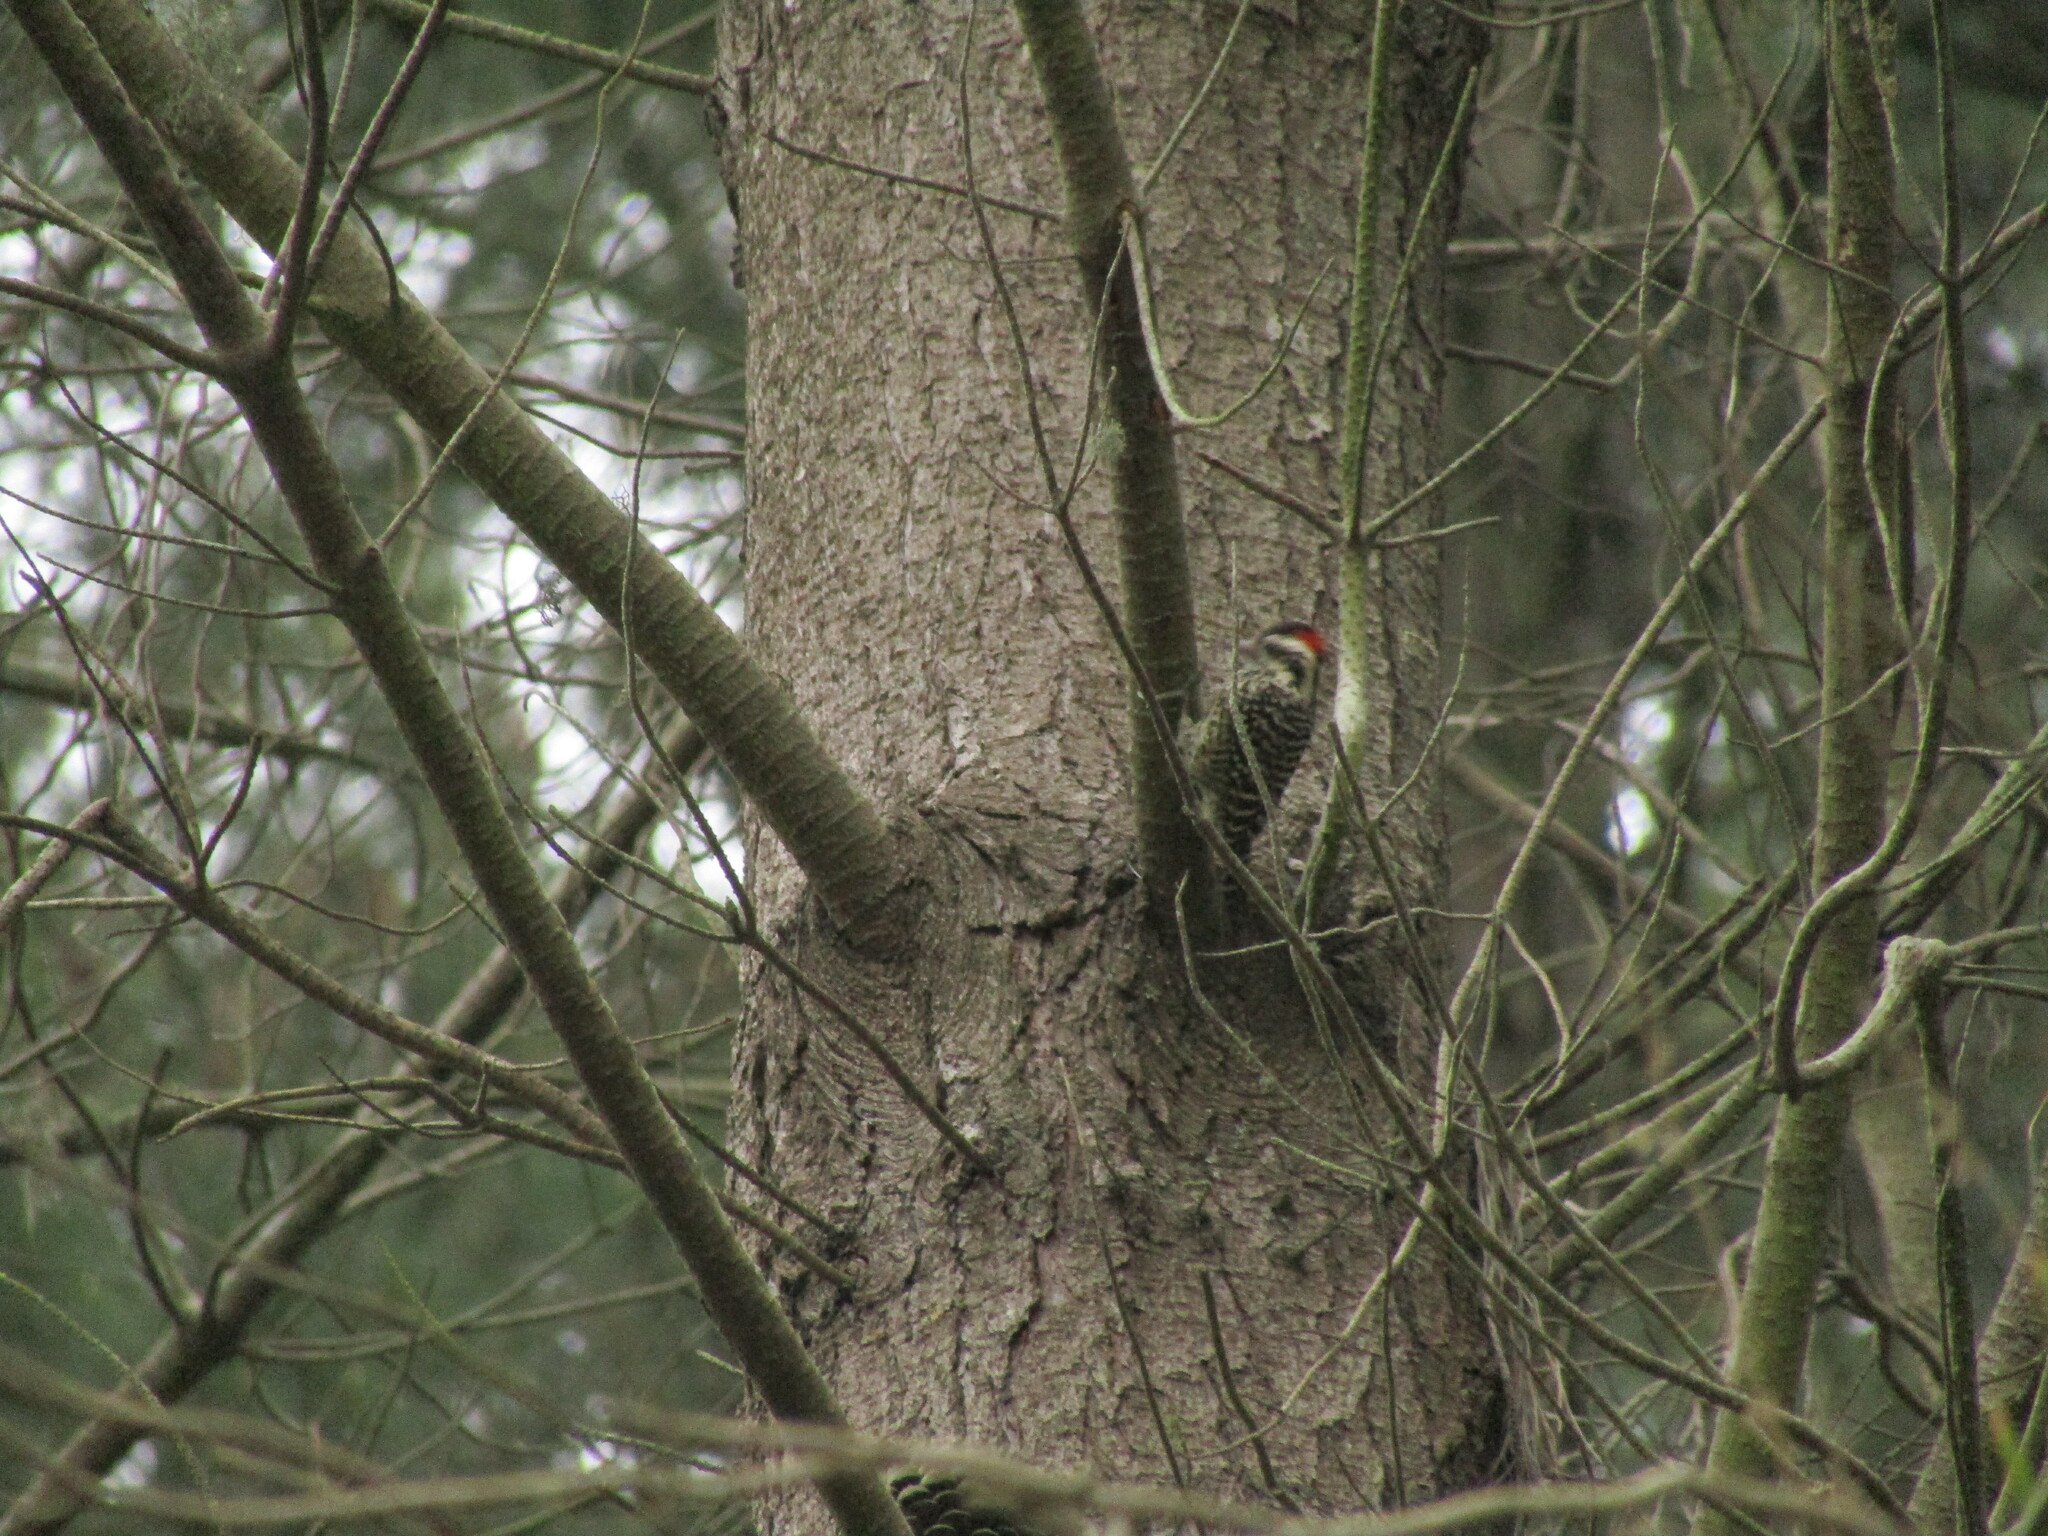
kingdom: Animalia
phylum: Chordata
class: Aves
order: Piciformes
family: Picidae
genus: Veniliornis
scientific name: Veniliornis lignarius
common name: Striped woodpecker
